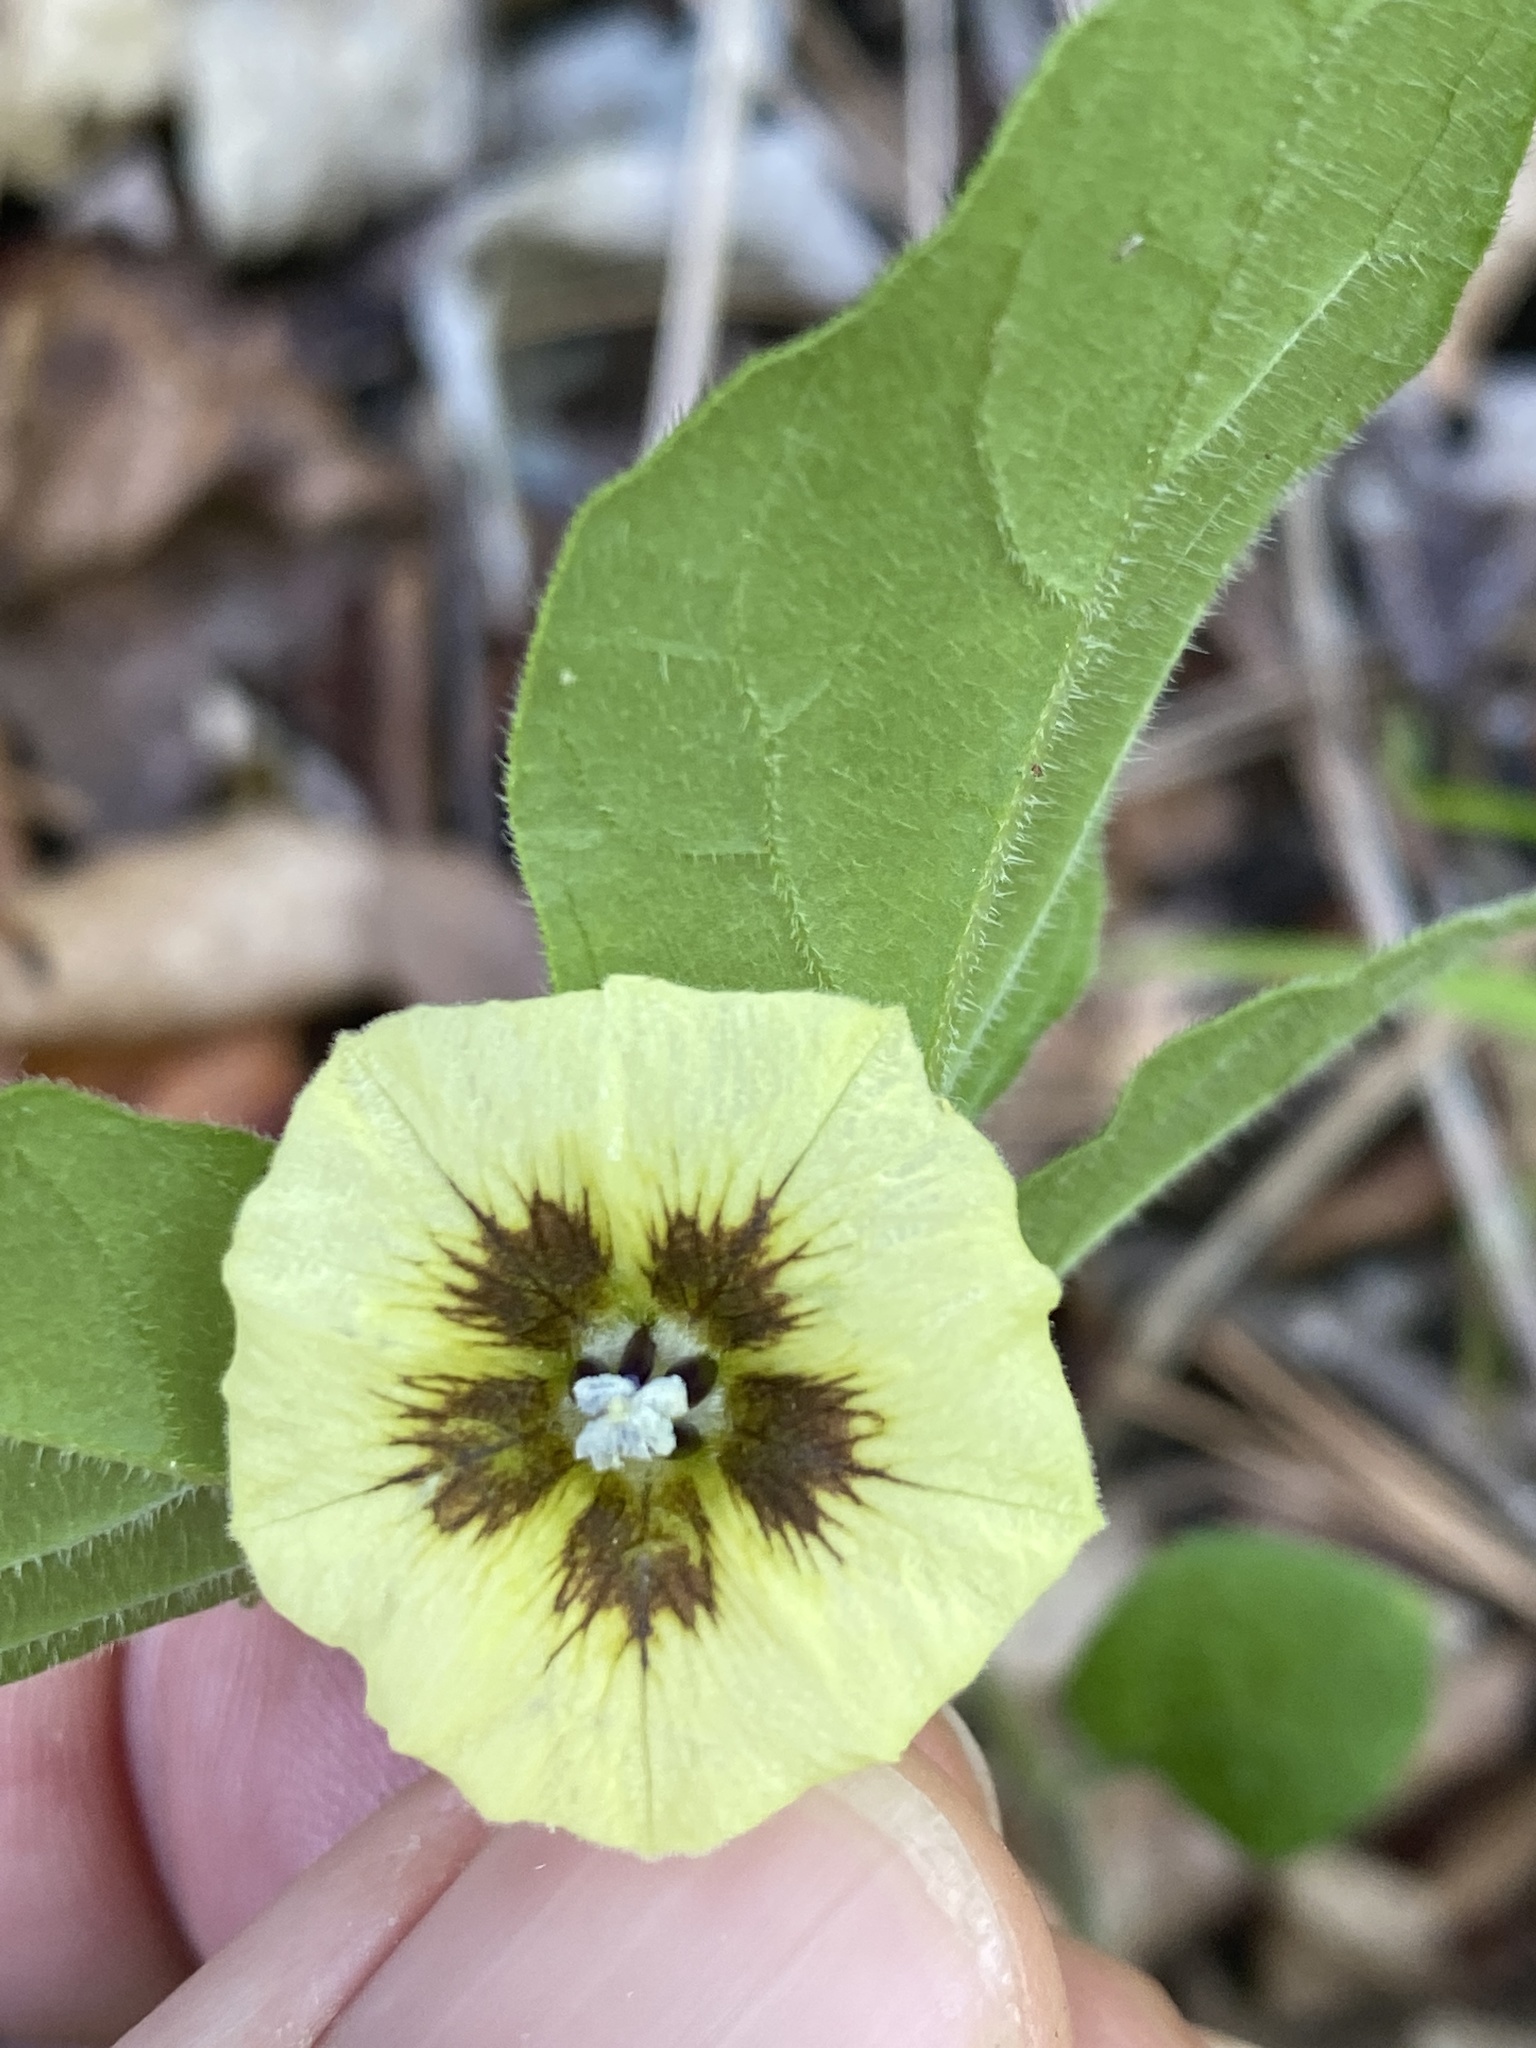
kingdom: Plantae
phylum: Tracheophyta
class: Magnoliopsida
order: Solanales
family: Solanaceae
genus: Physalis
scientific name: Physalis virginiana
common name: Virginia ground-cherry
